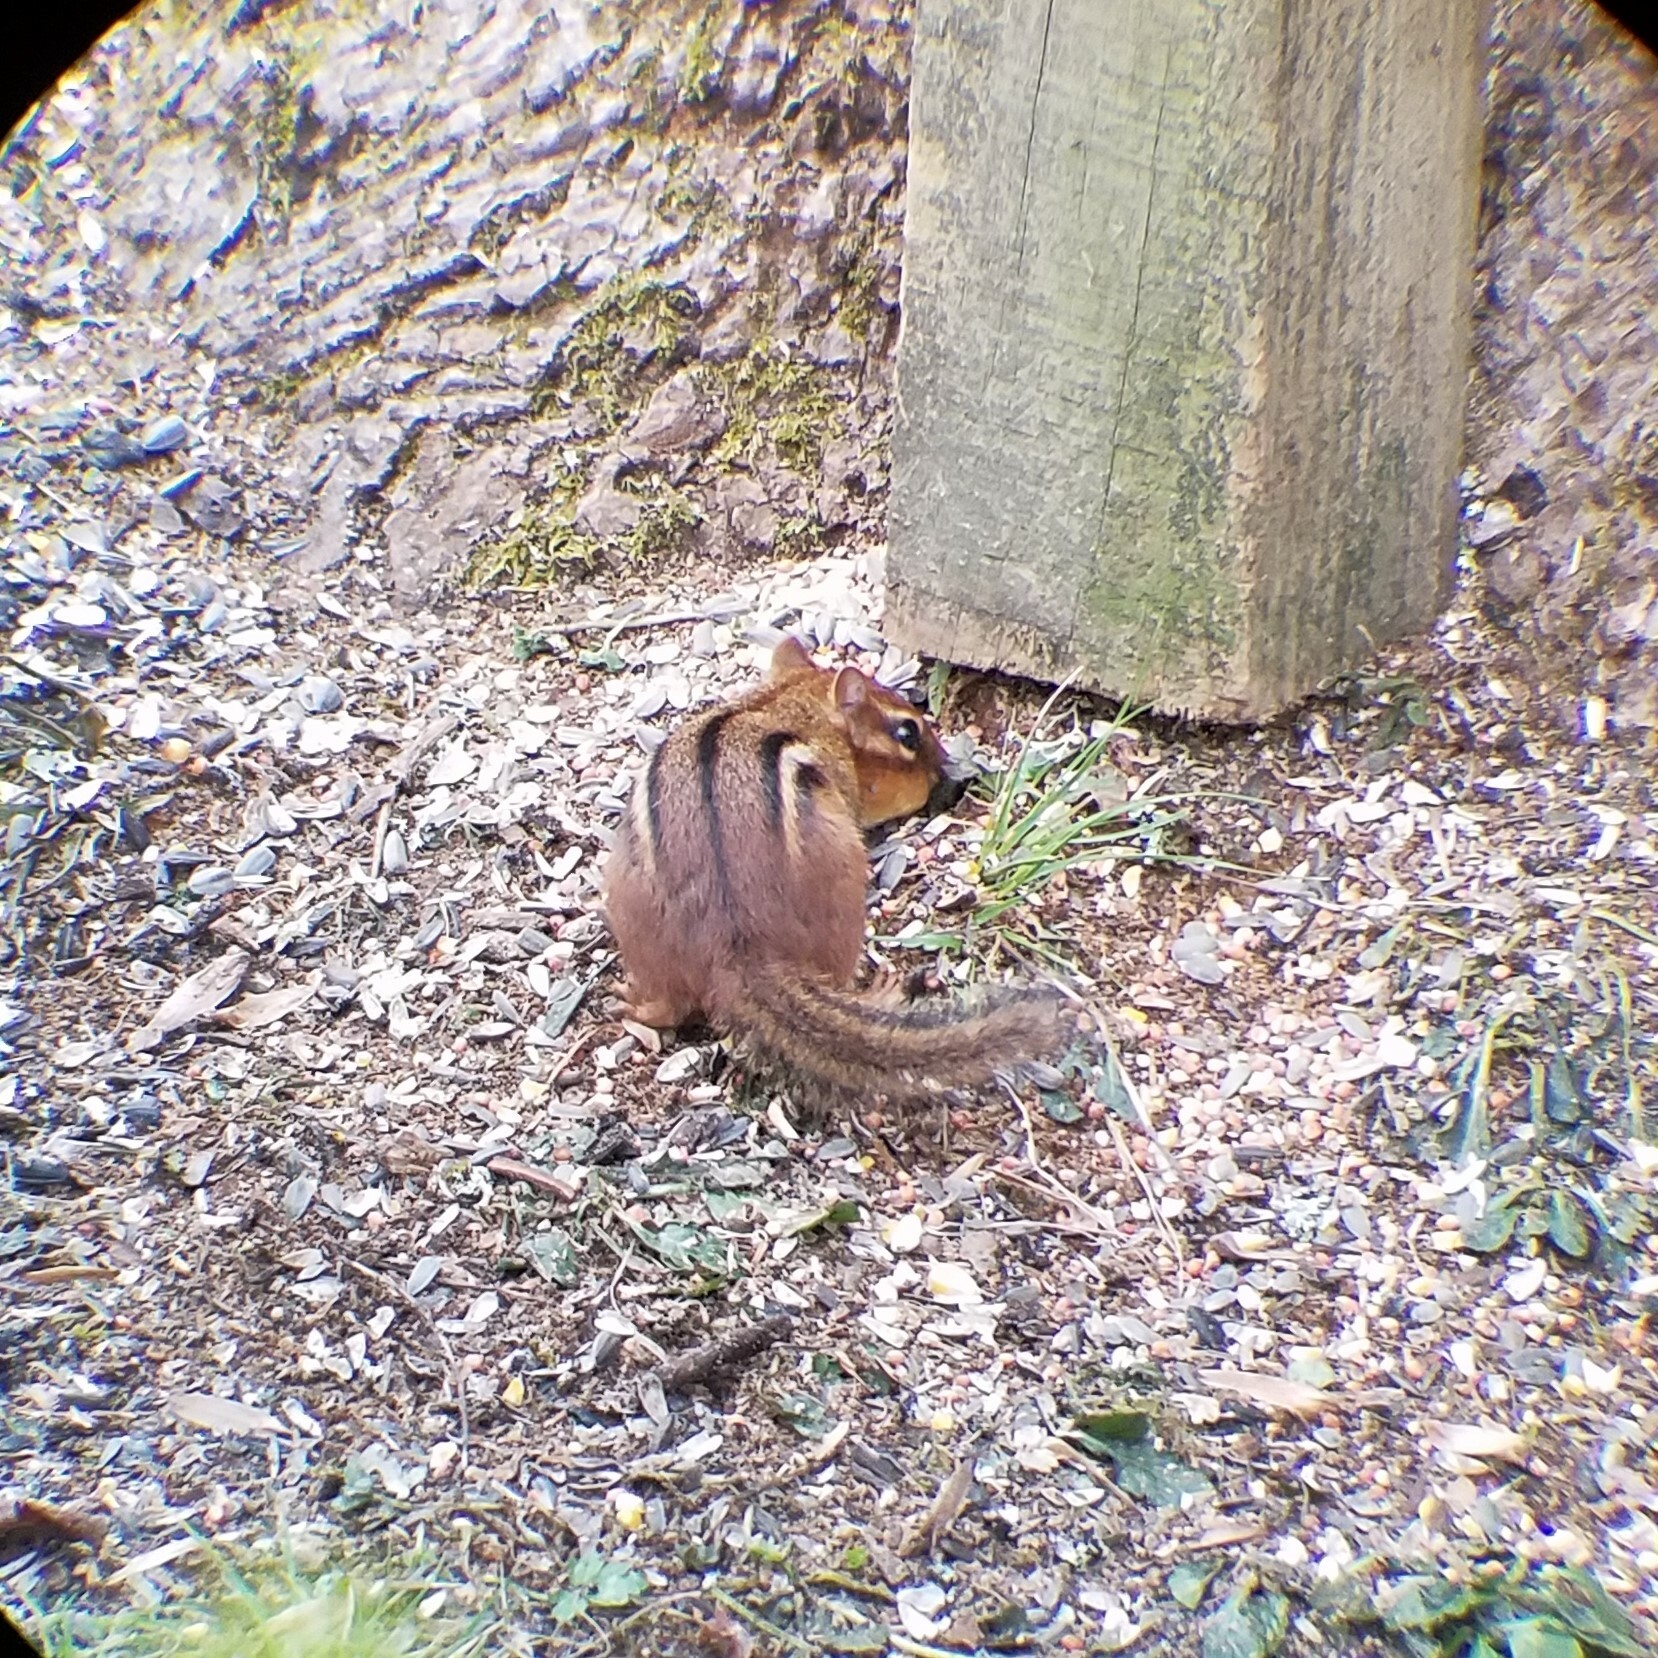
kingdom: Animalia
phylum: Chordata
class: Mammalia
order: Rodentia
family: Sciuridae
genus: Tamias
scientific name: Tamias striatus
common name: Eastern chipmunk
